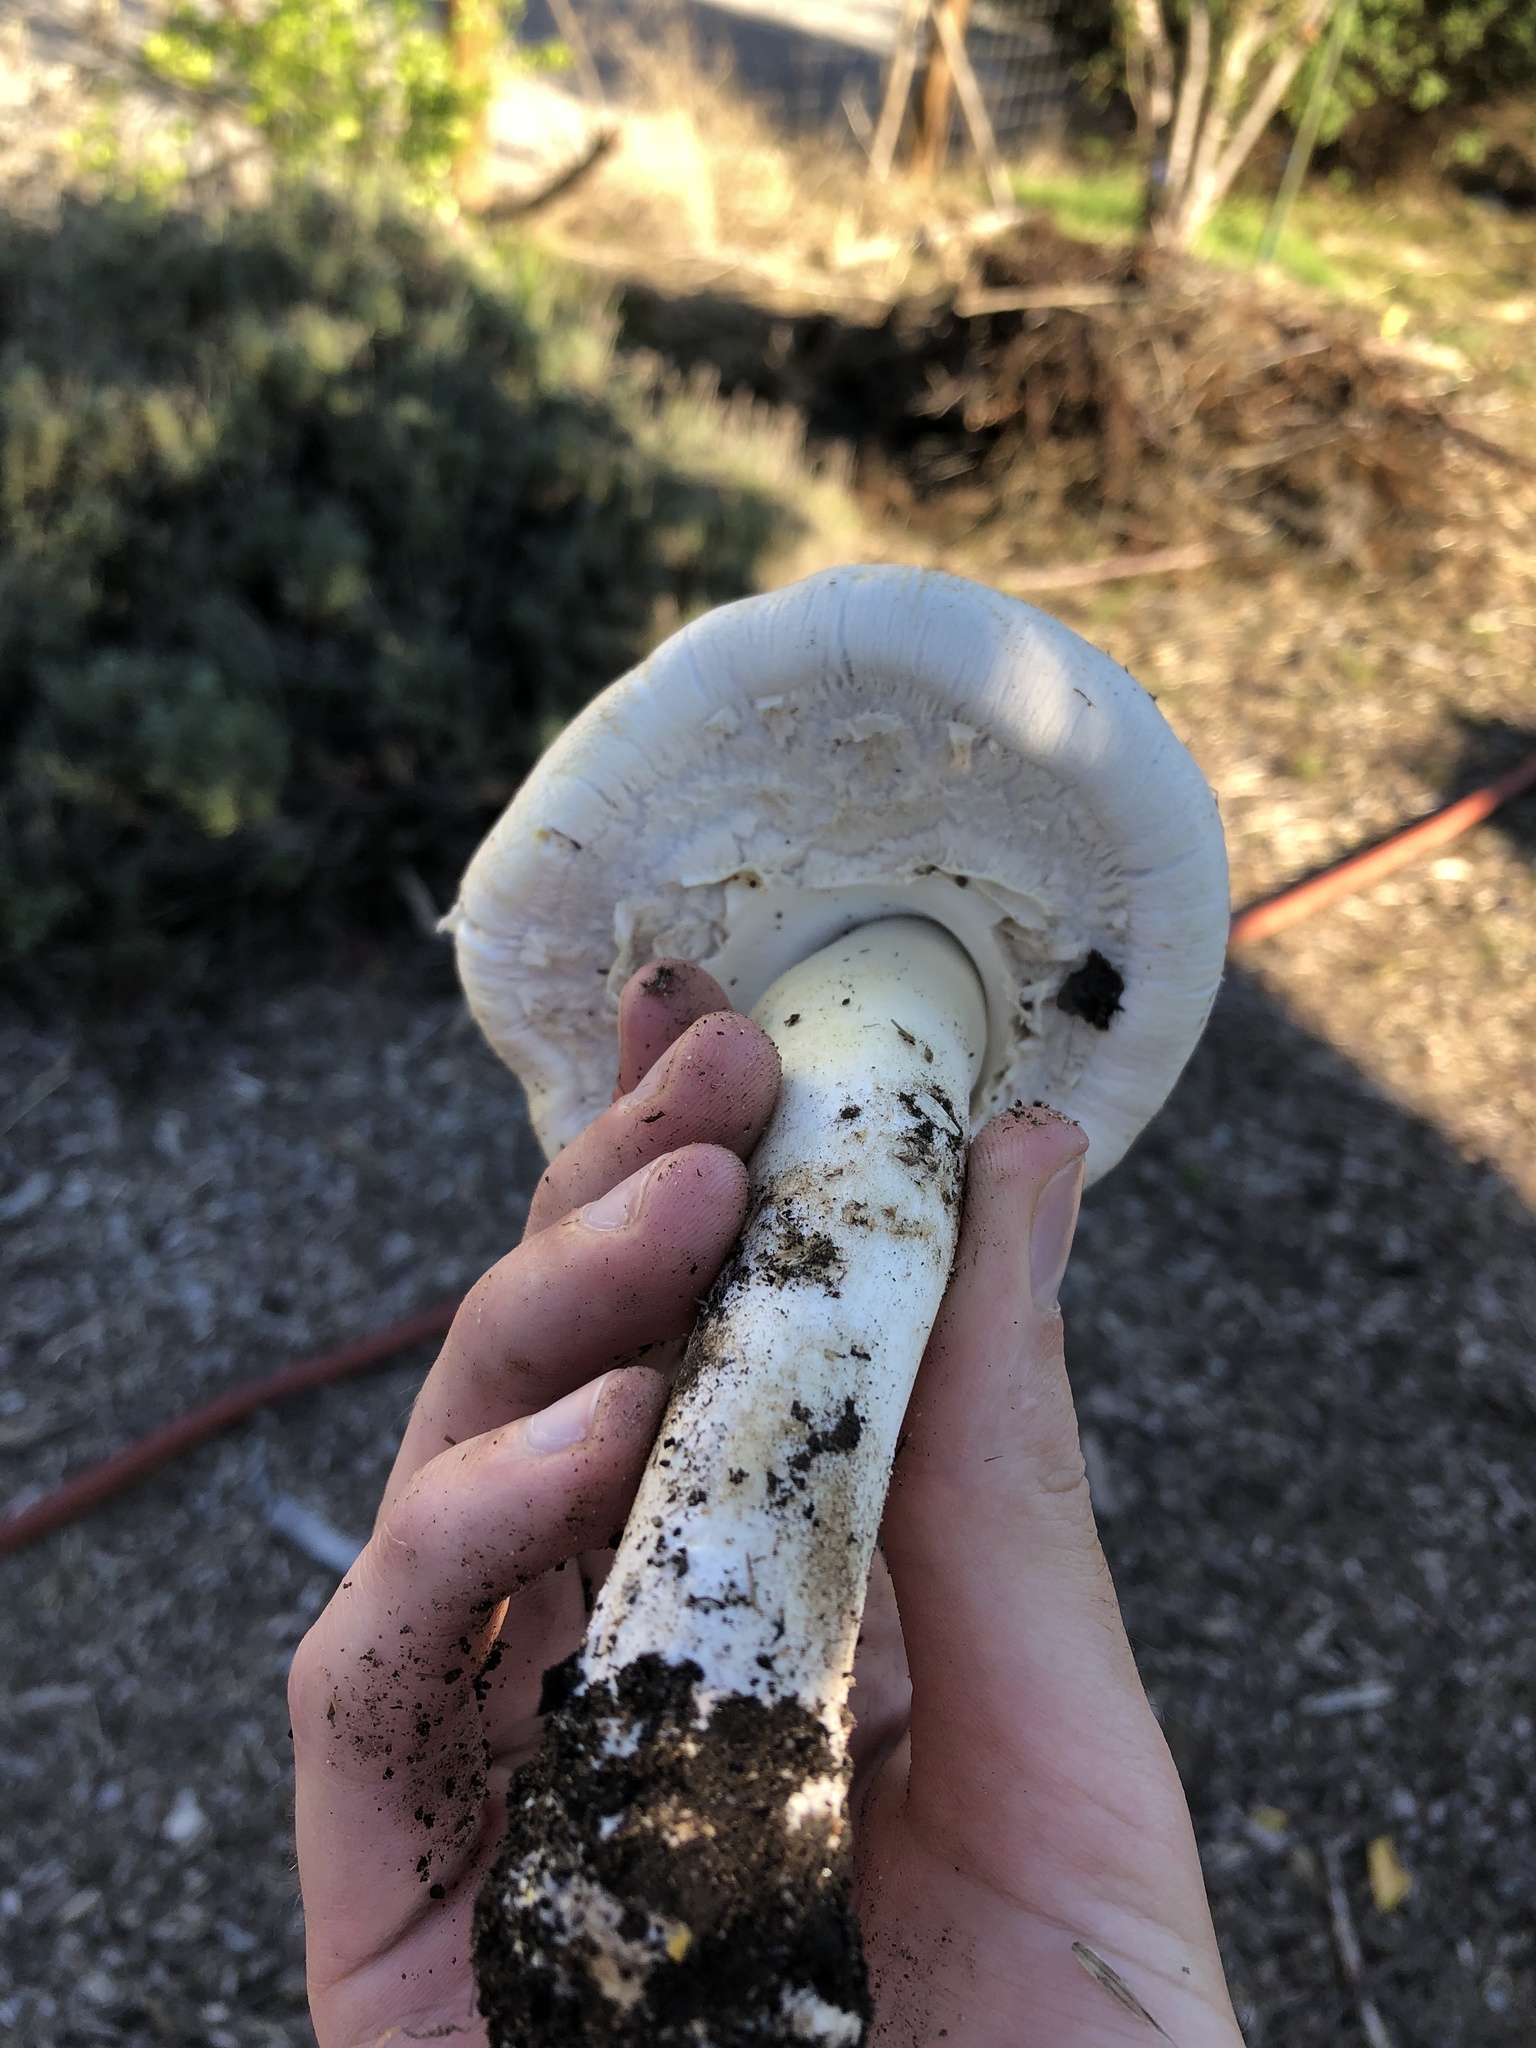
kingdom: Fungi
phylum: Basidiomycota
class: Agaricomycetes
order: Agaricales
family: Agaricaceae
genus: Agaricus
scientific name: Agaricus xanthodermus
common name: Yellow stainer
